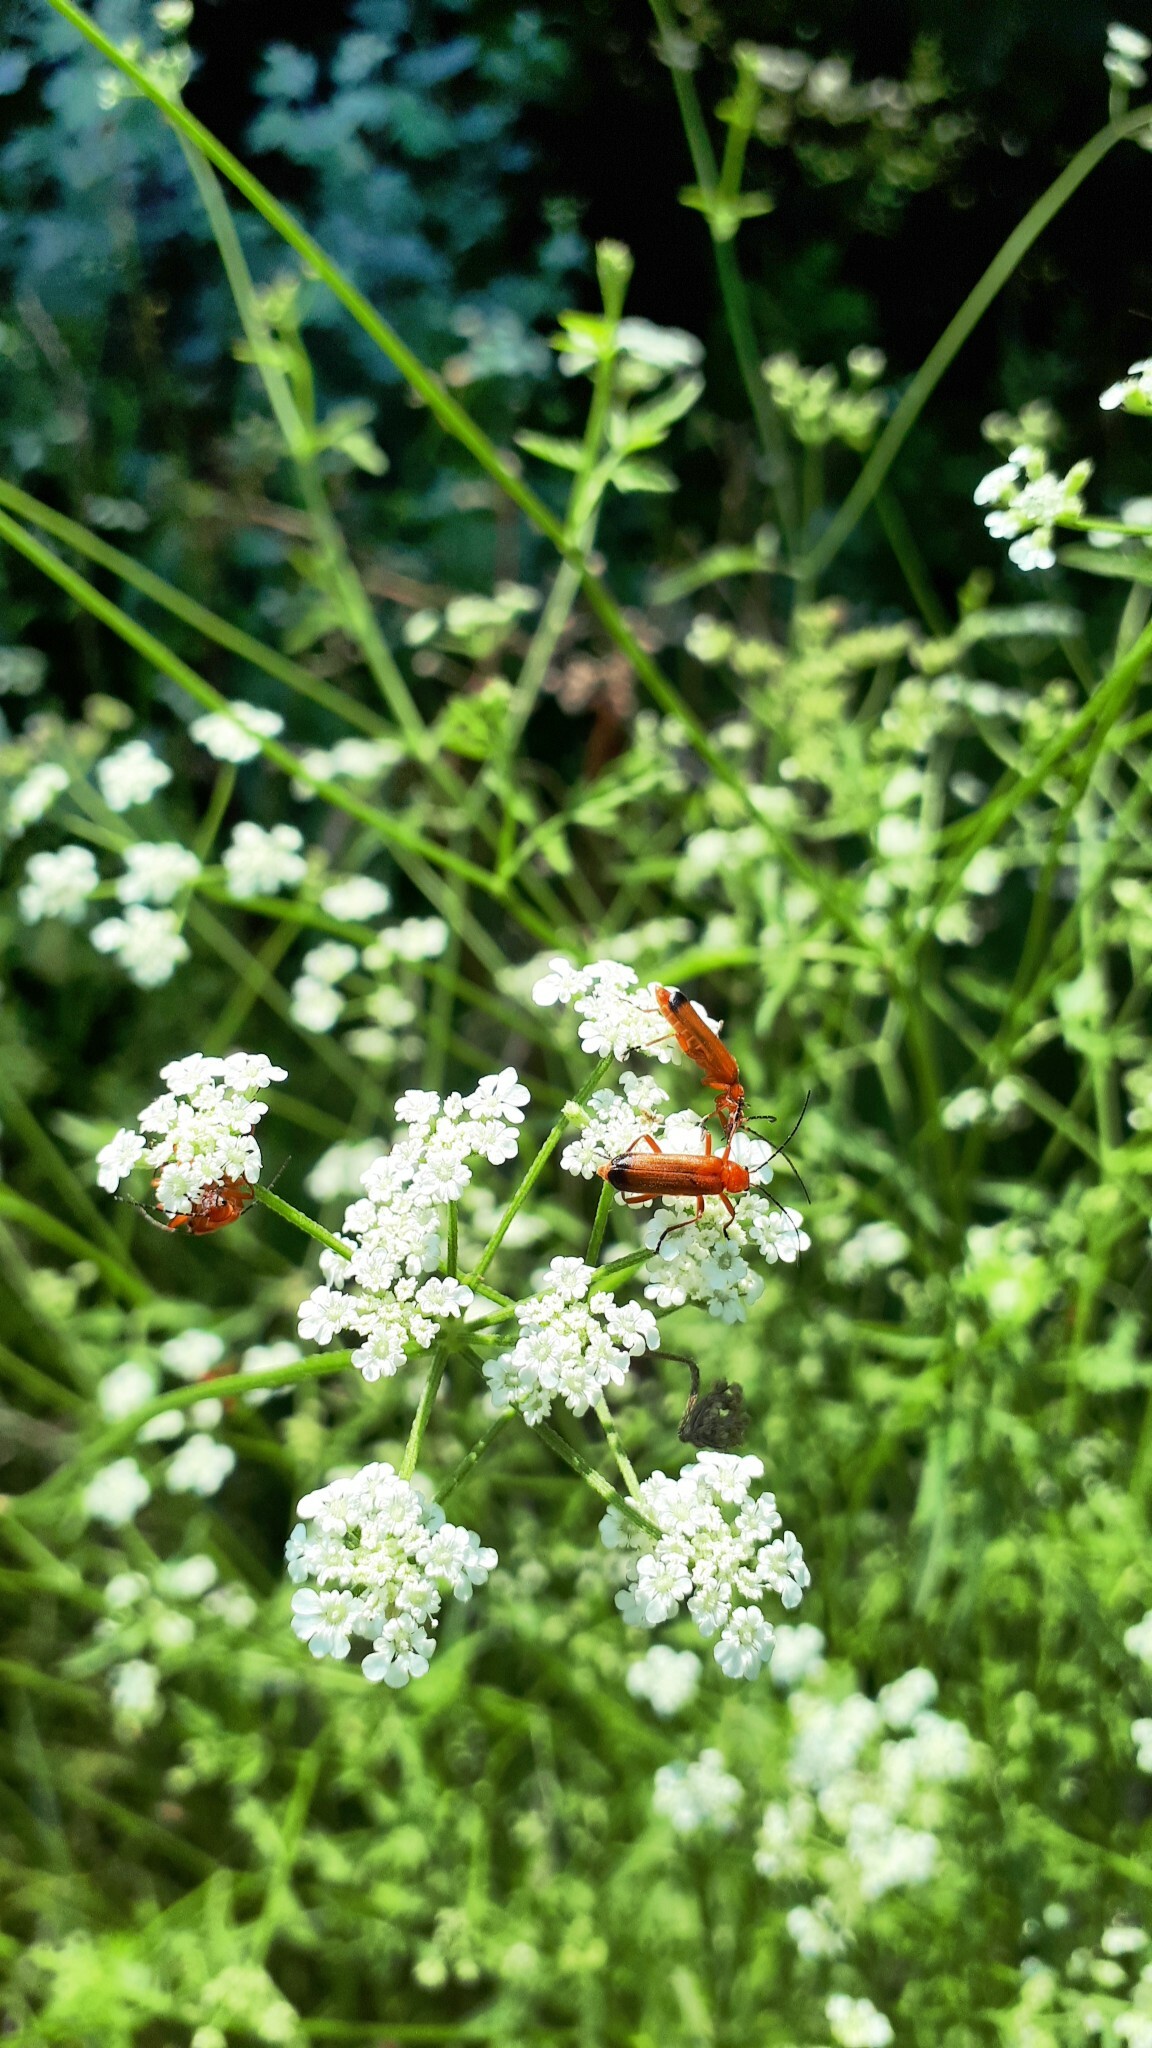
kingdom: Animalia
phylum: Arthropoda
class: Insecta
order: Coleoptera
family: Cantharidae
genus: Rhagonycha
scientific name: Rhagonycha fulva
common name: Common red soldier beetle
